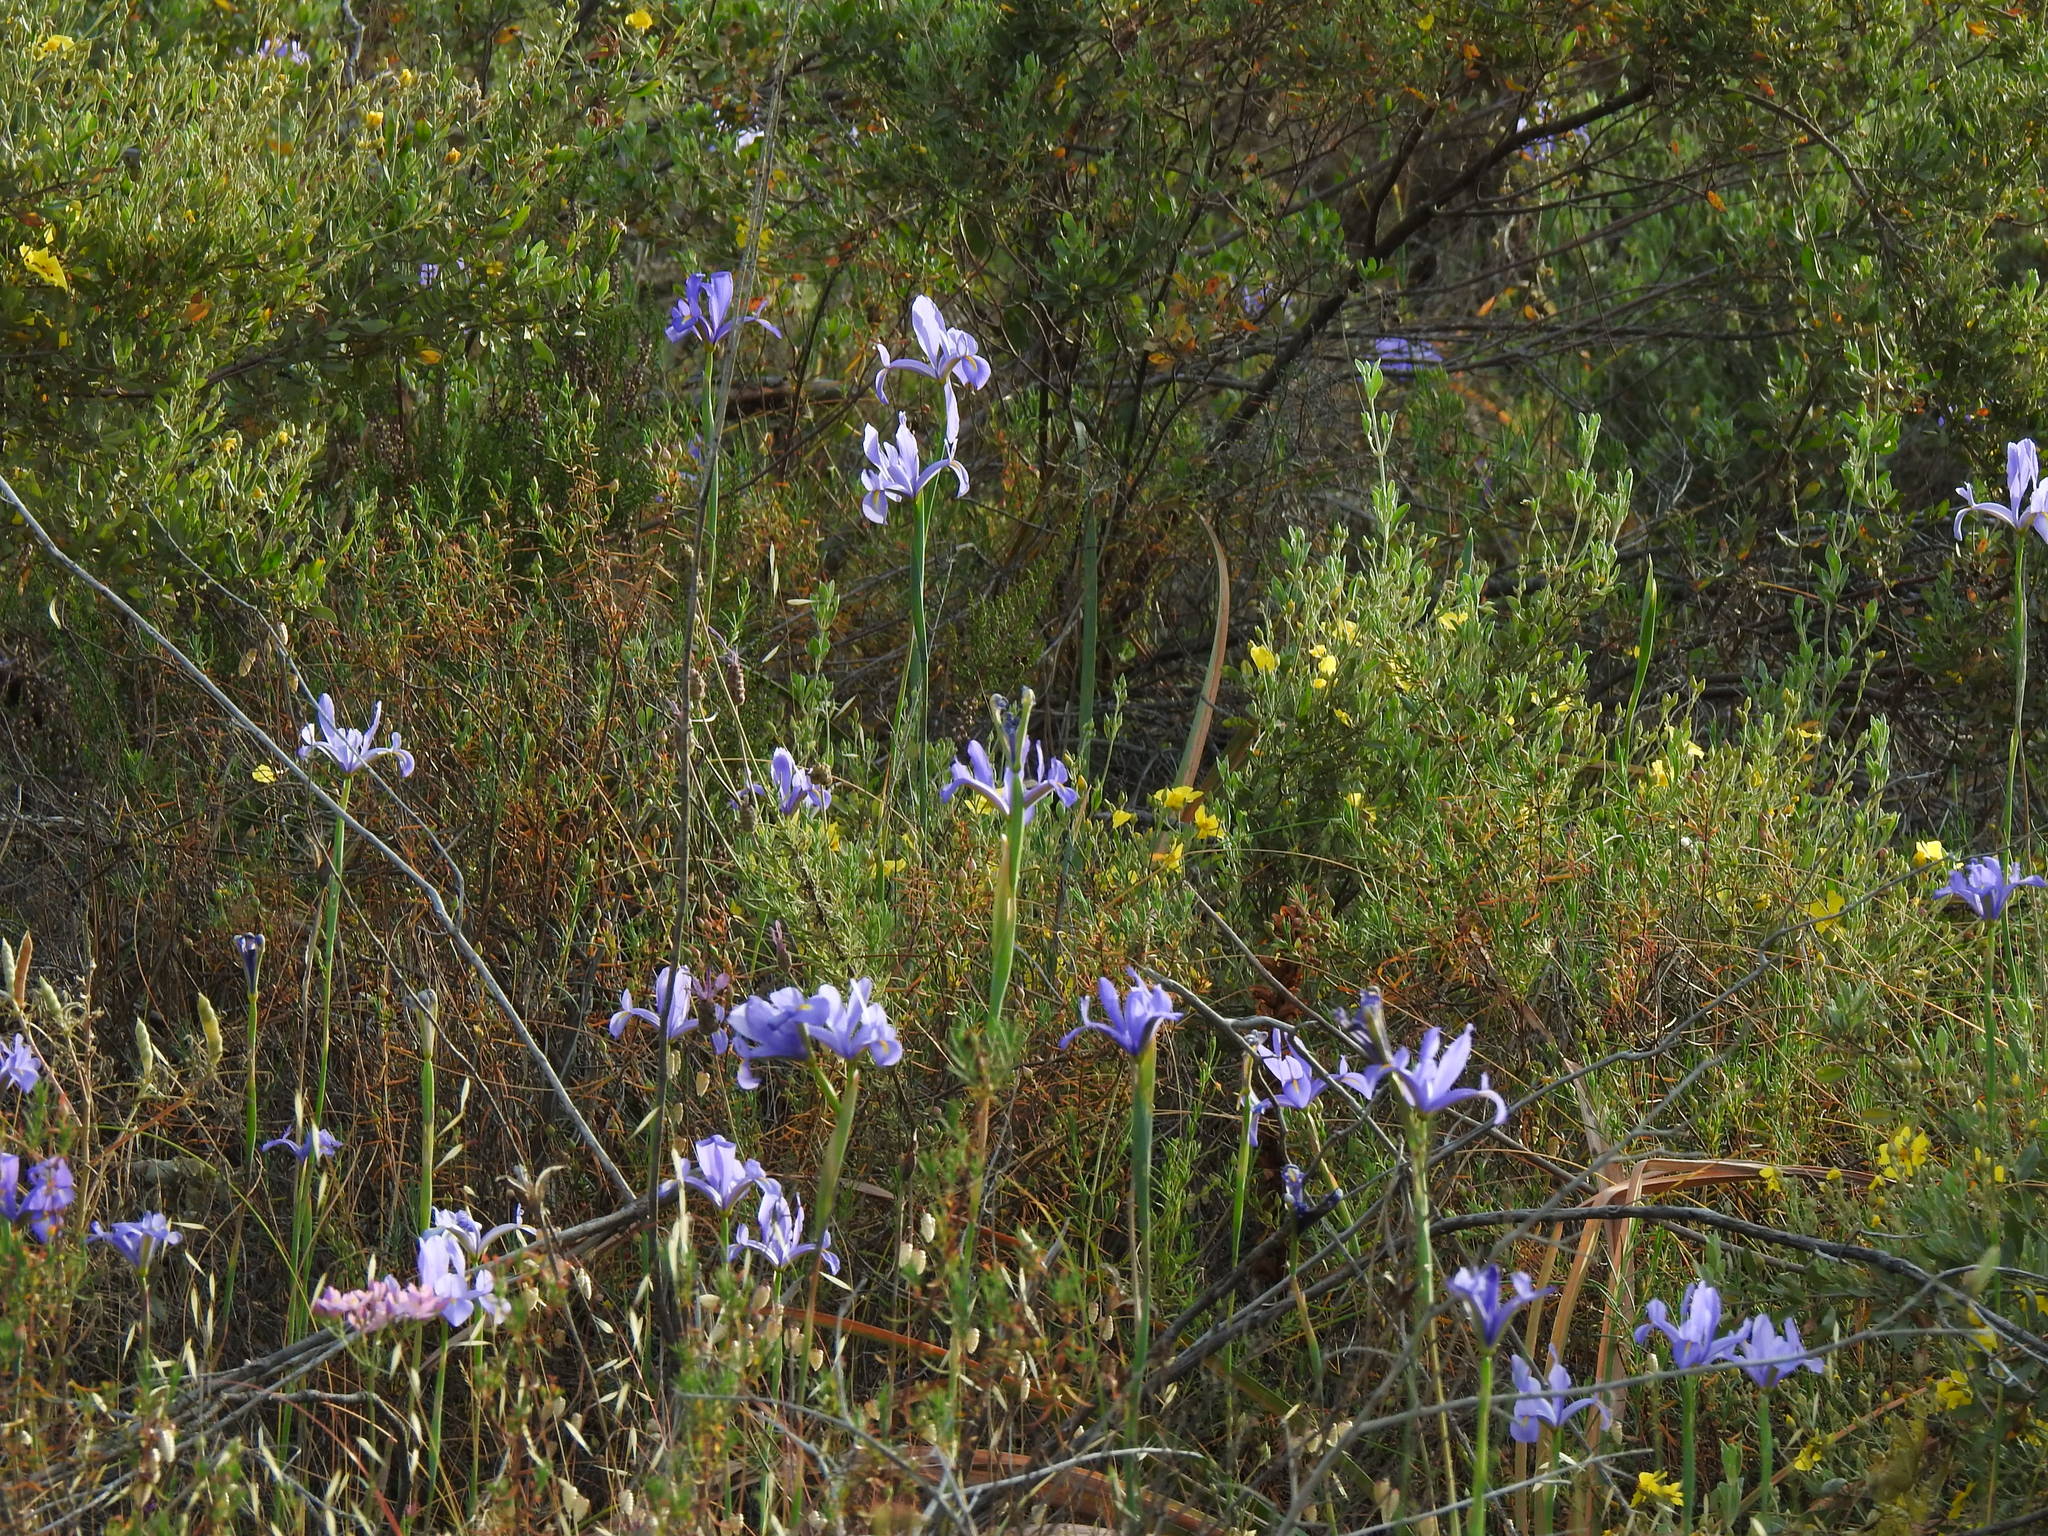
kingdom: Plantae
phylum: Tracheophyta
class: Liliopsida
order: Asparagales
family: Iridaceae
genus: Iris
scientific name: Iris xiphium
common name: Spanish iris
